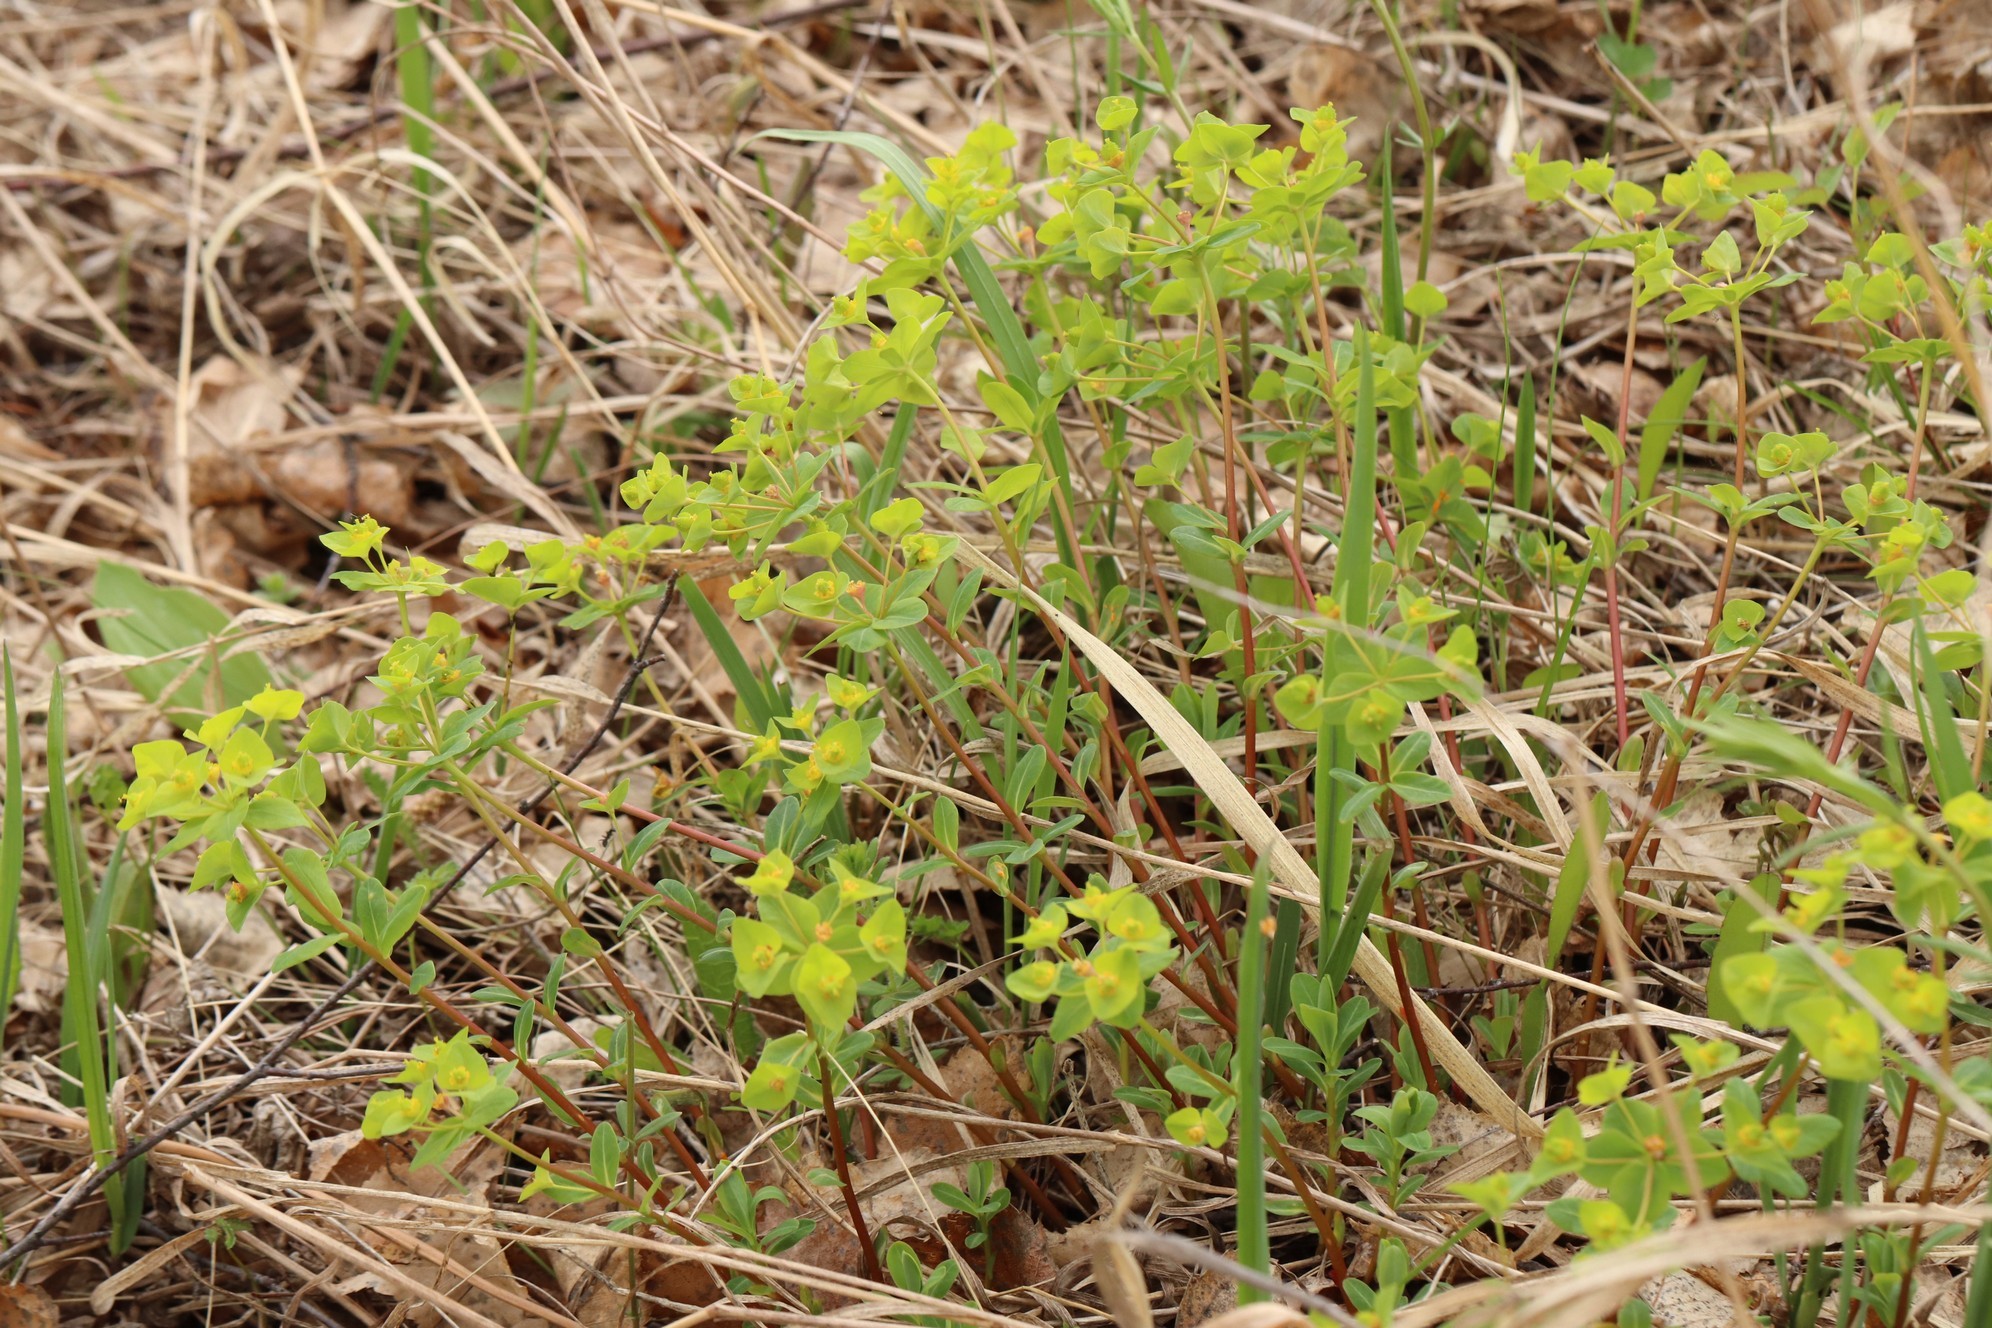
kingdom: Plantae
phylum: Tracheophyta
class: Magnoliopsida
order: Malpighiales
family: Euphorbiaceae
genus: Euphorbia
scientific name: Euphorbia altaica
